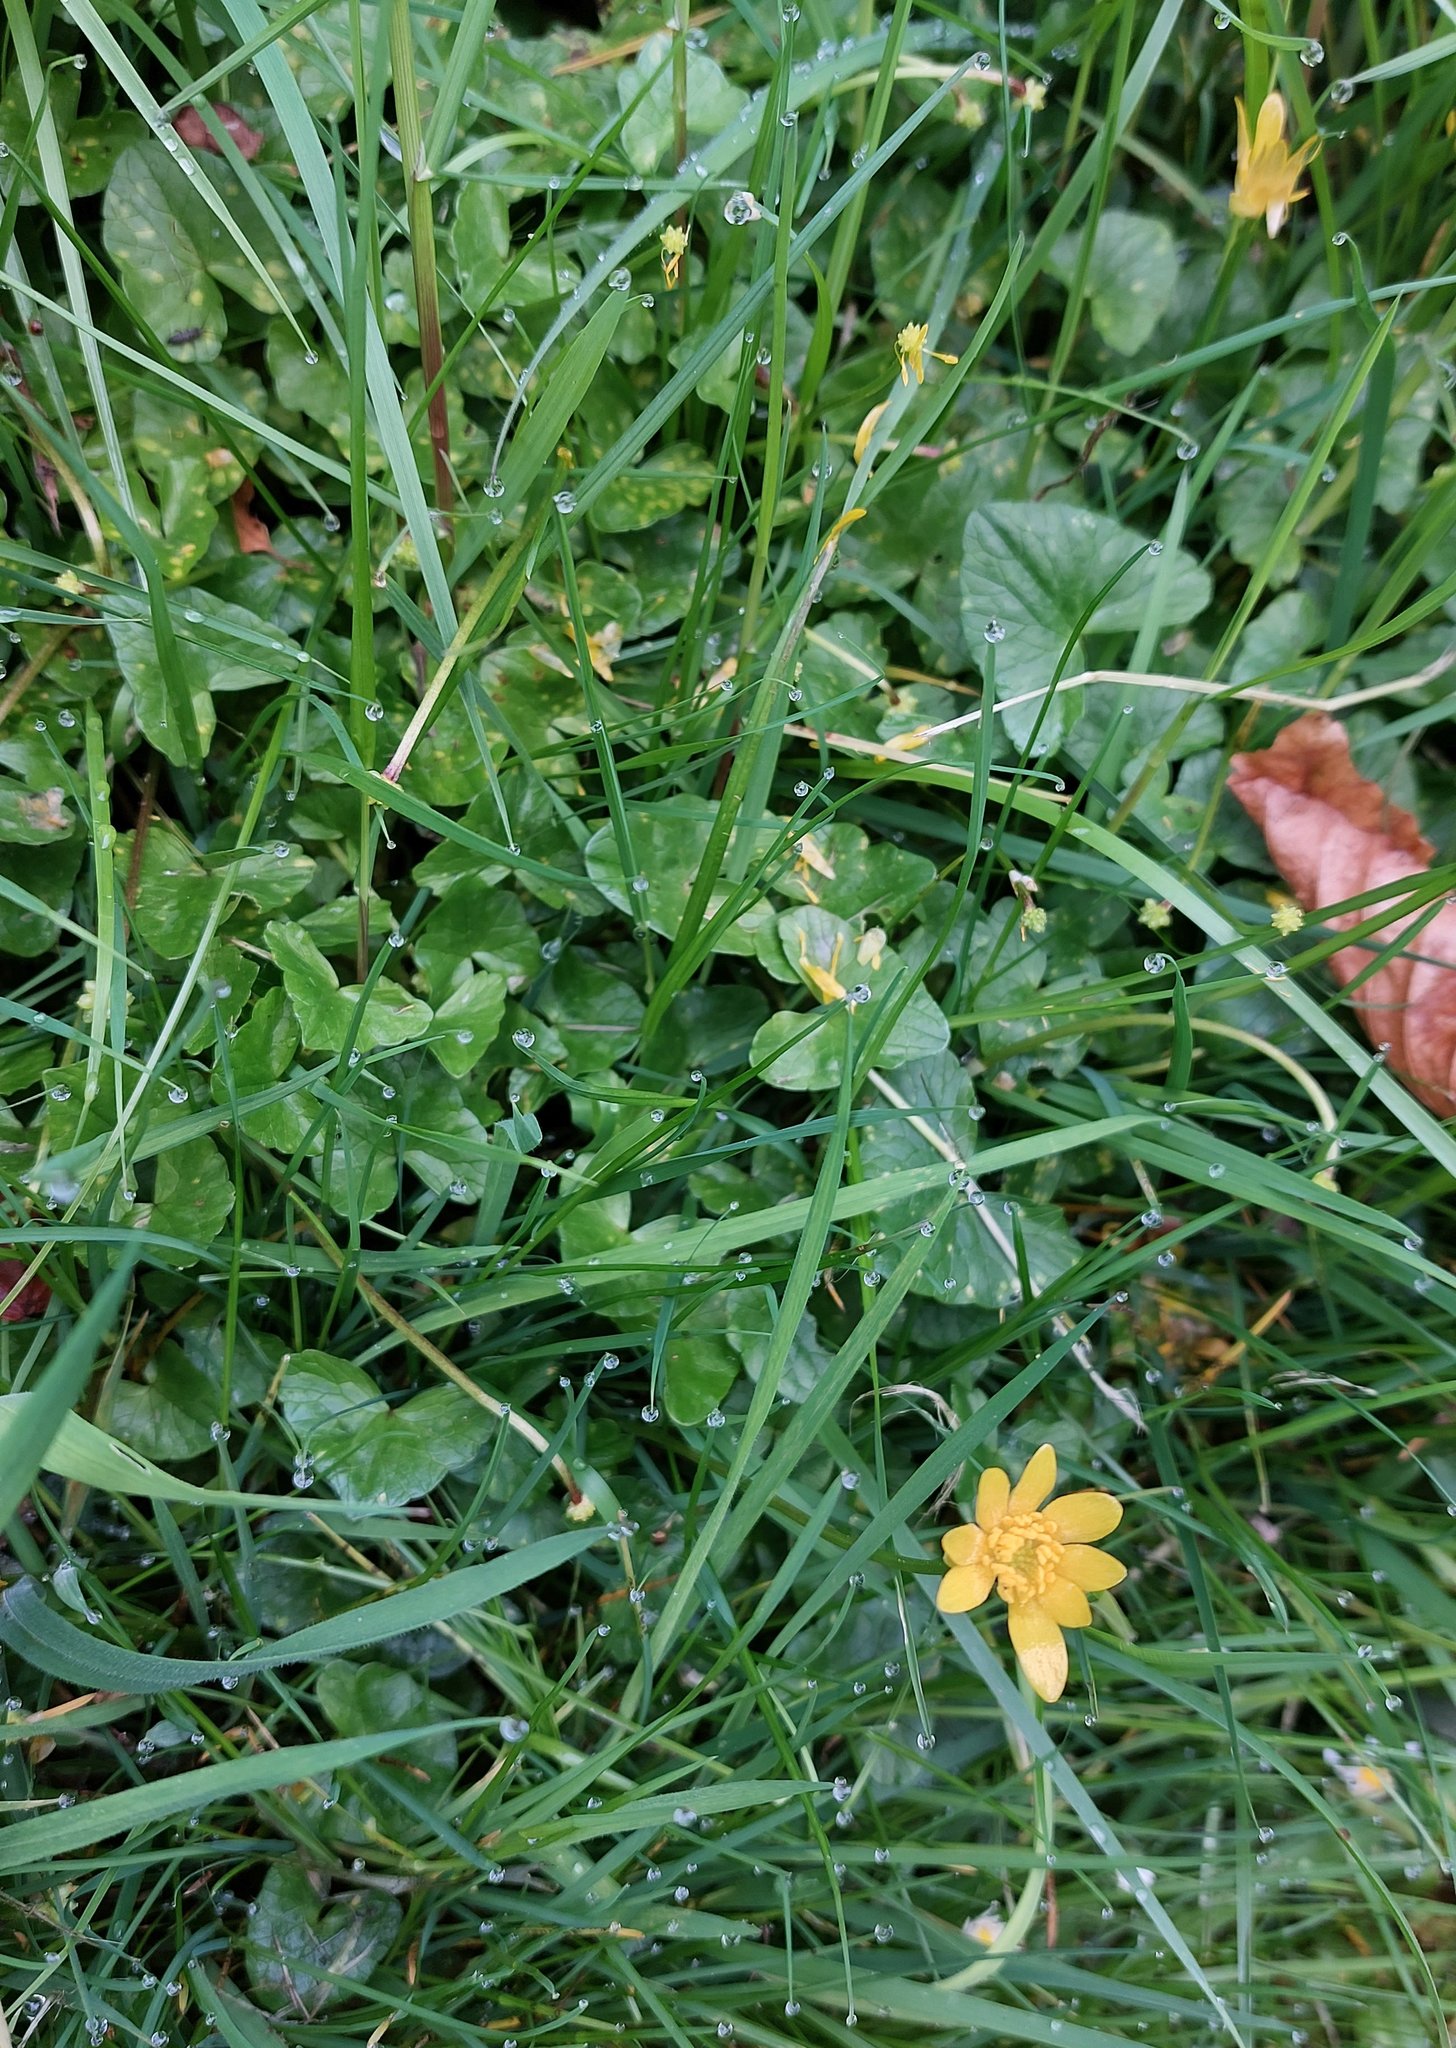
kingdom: Plantae
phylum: Tracheophyta
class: Magnoliopsida
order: Ranunculales
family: Ranunculaceae
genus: Ficaria
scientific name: Ficaria verna
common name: Lesser celandine
